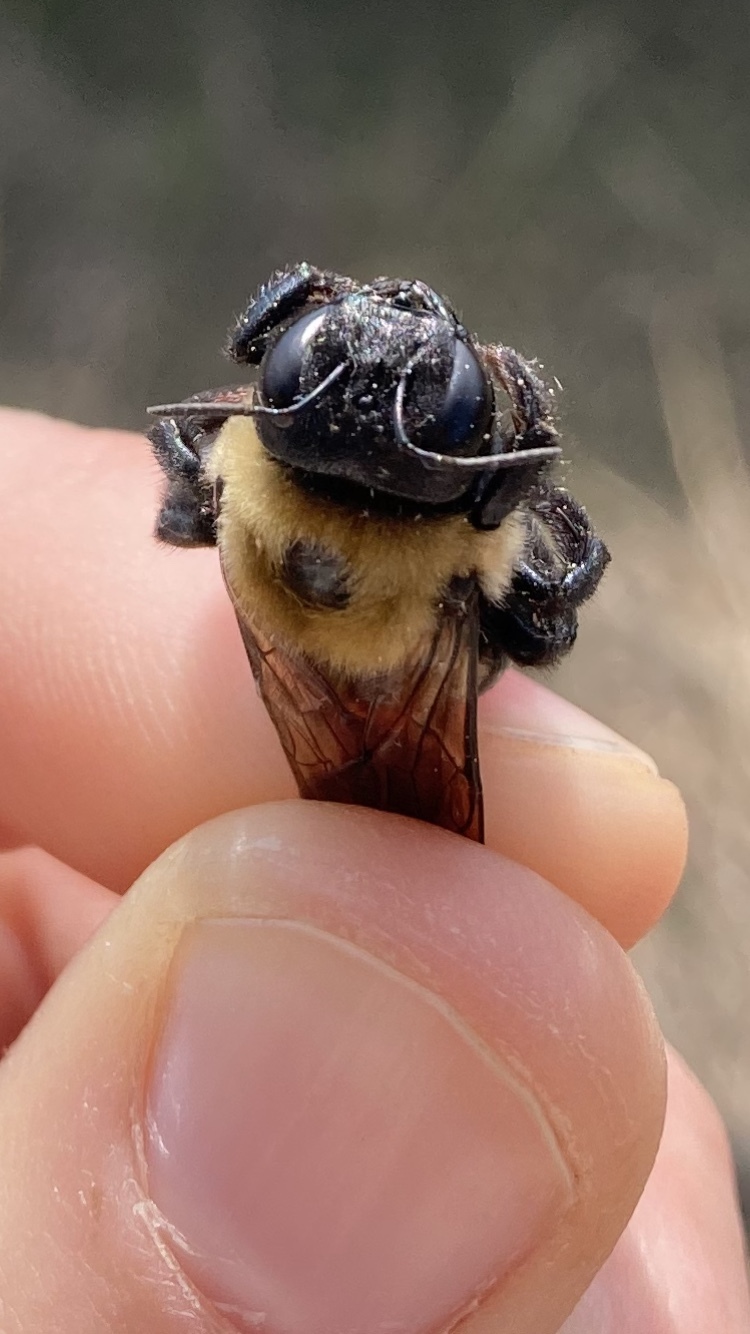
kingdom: Animalia
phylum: Arthropoda
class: Insecta
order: Hymenoptera
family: Apidae
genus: Xylocopa
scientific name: Xylocopa virginica
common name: Carpenter bee
